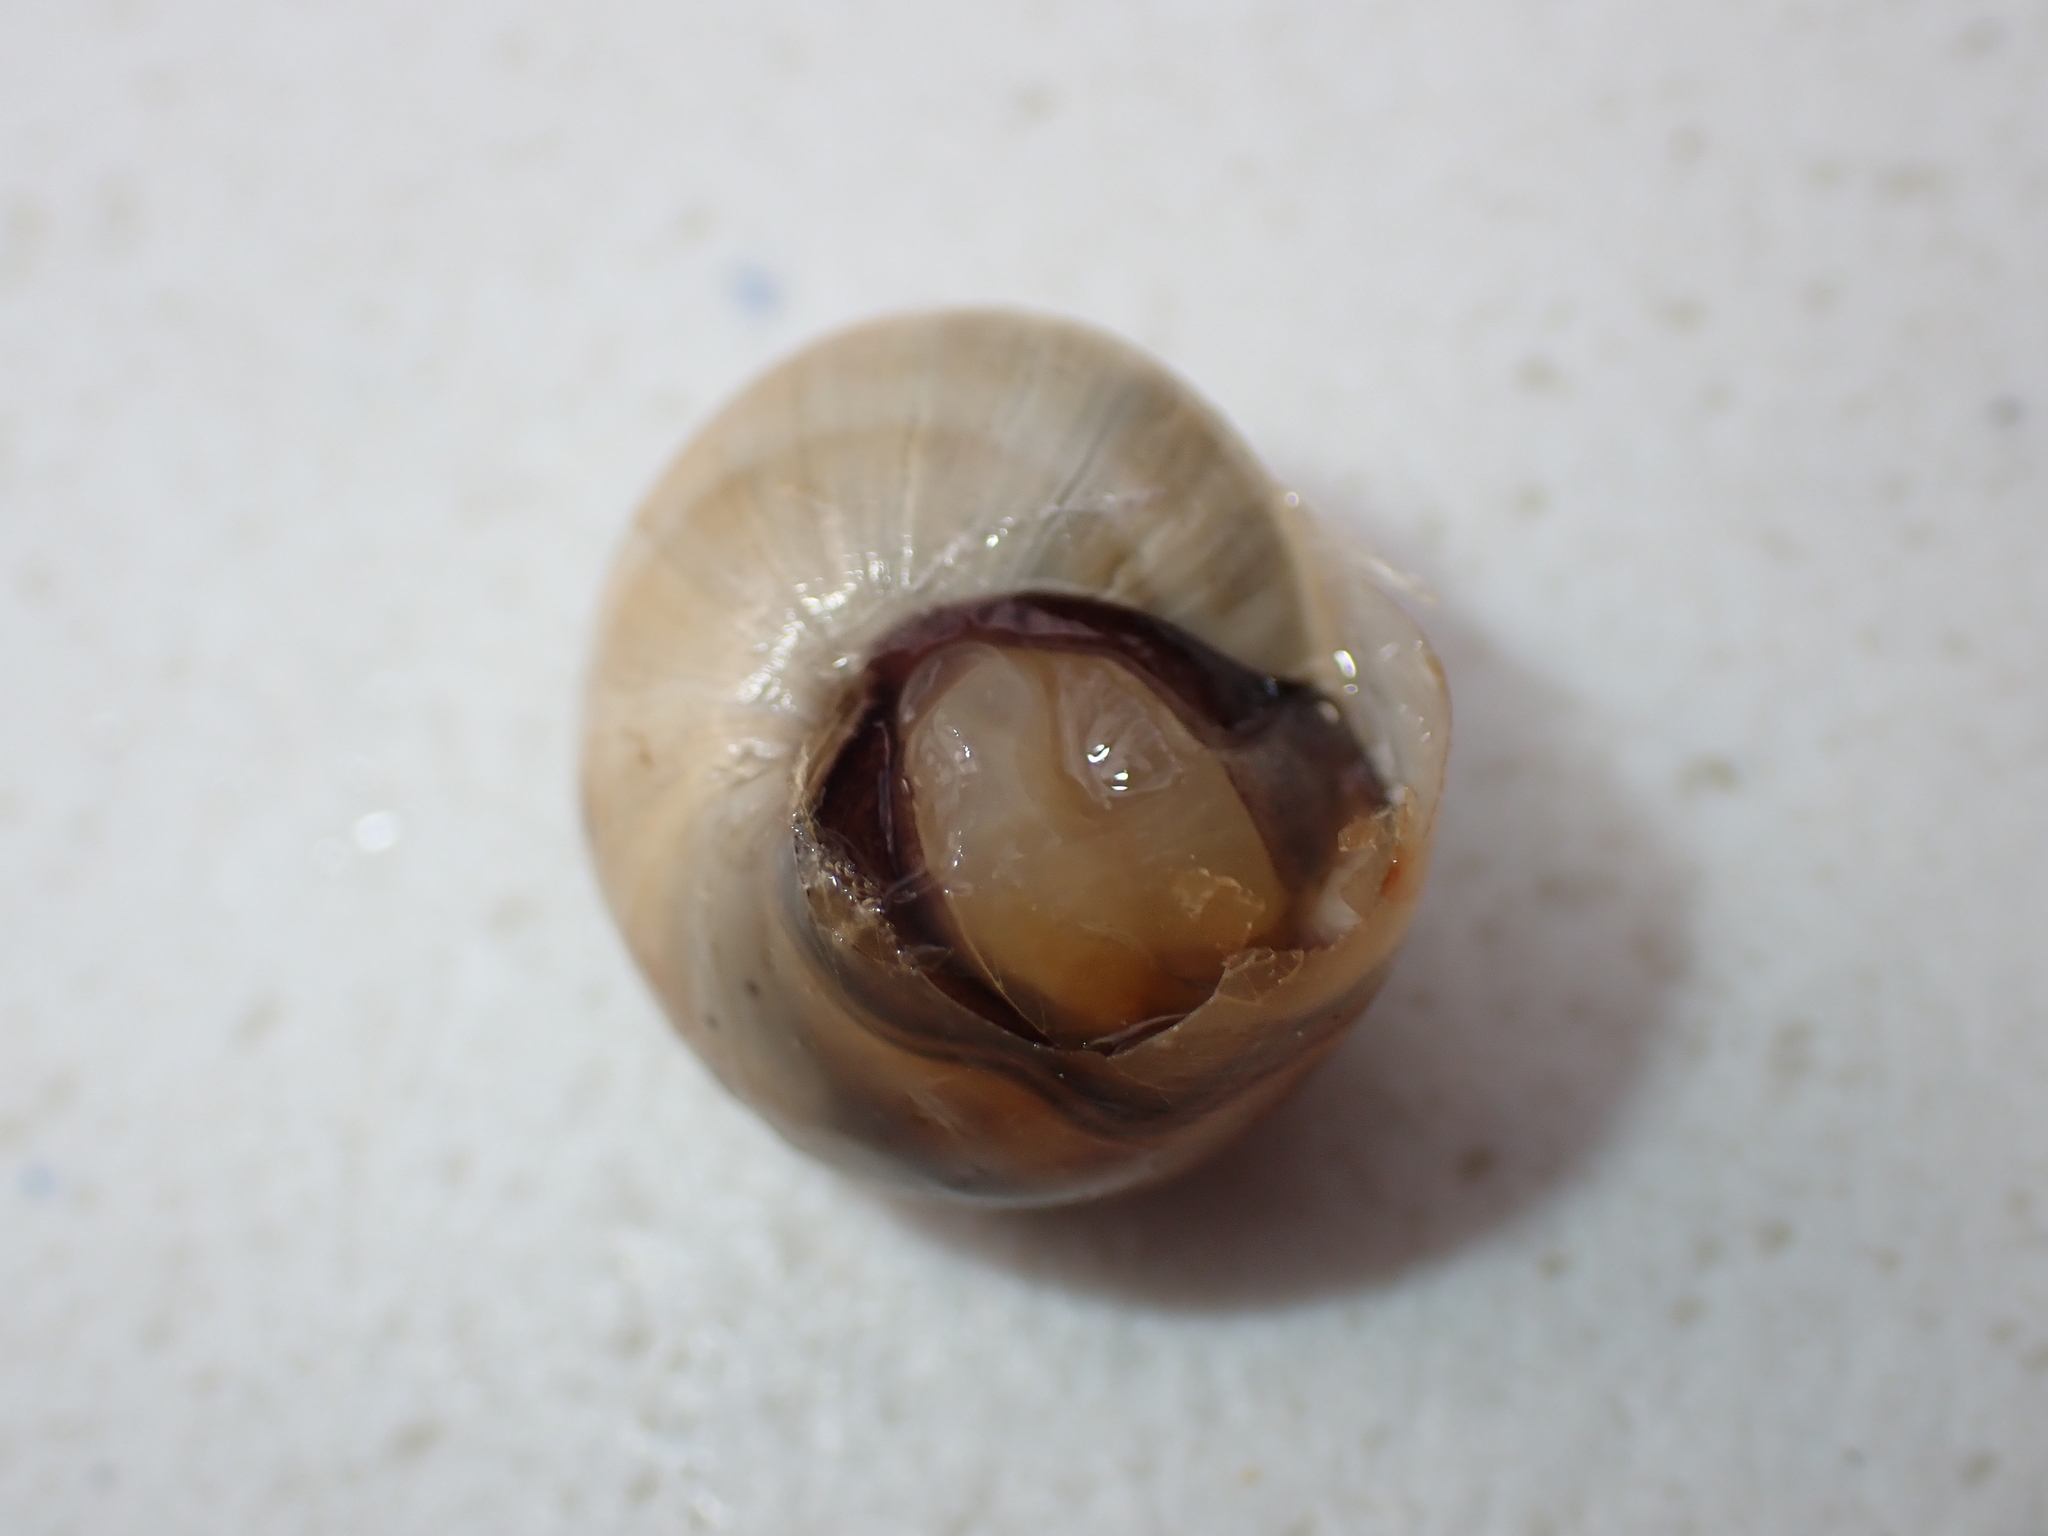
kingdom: Animalia
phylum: Mollusca
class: Gastropoda
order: Stylommatophora
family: Helicidae
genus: Theba
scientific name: Theba pisana
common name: White snail
